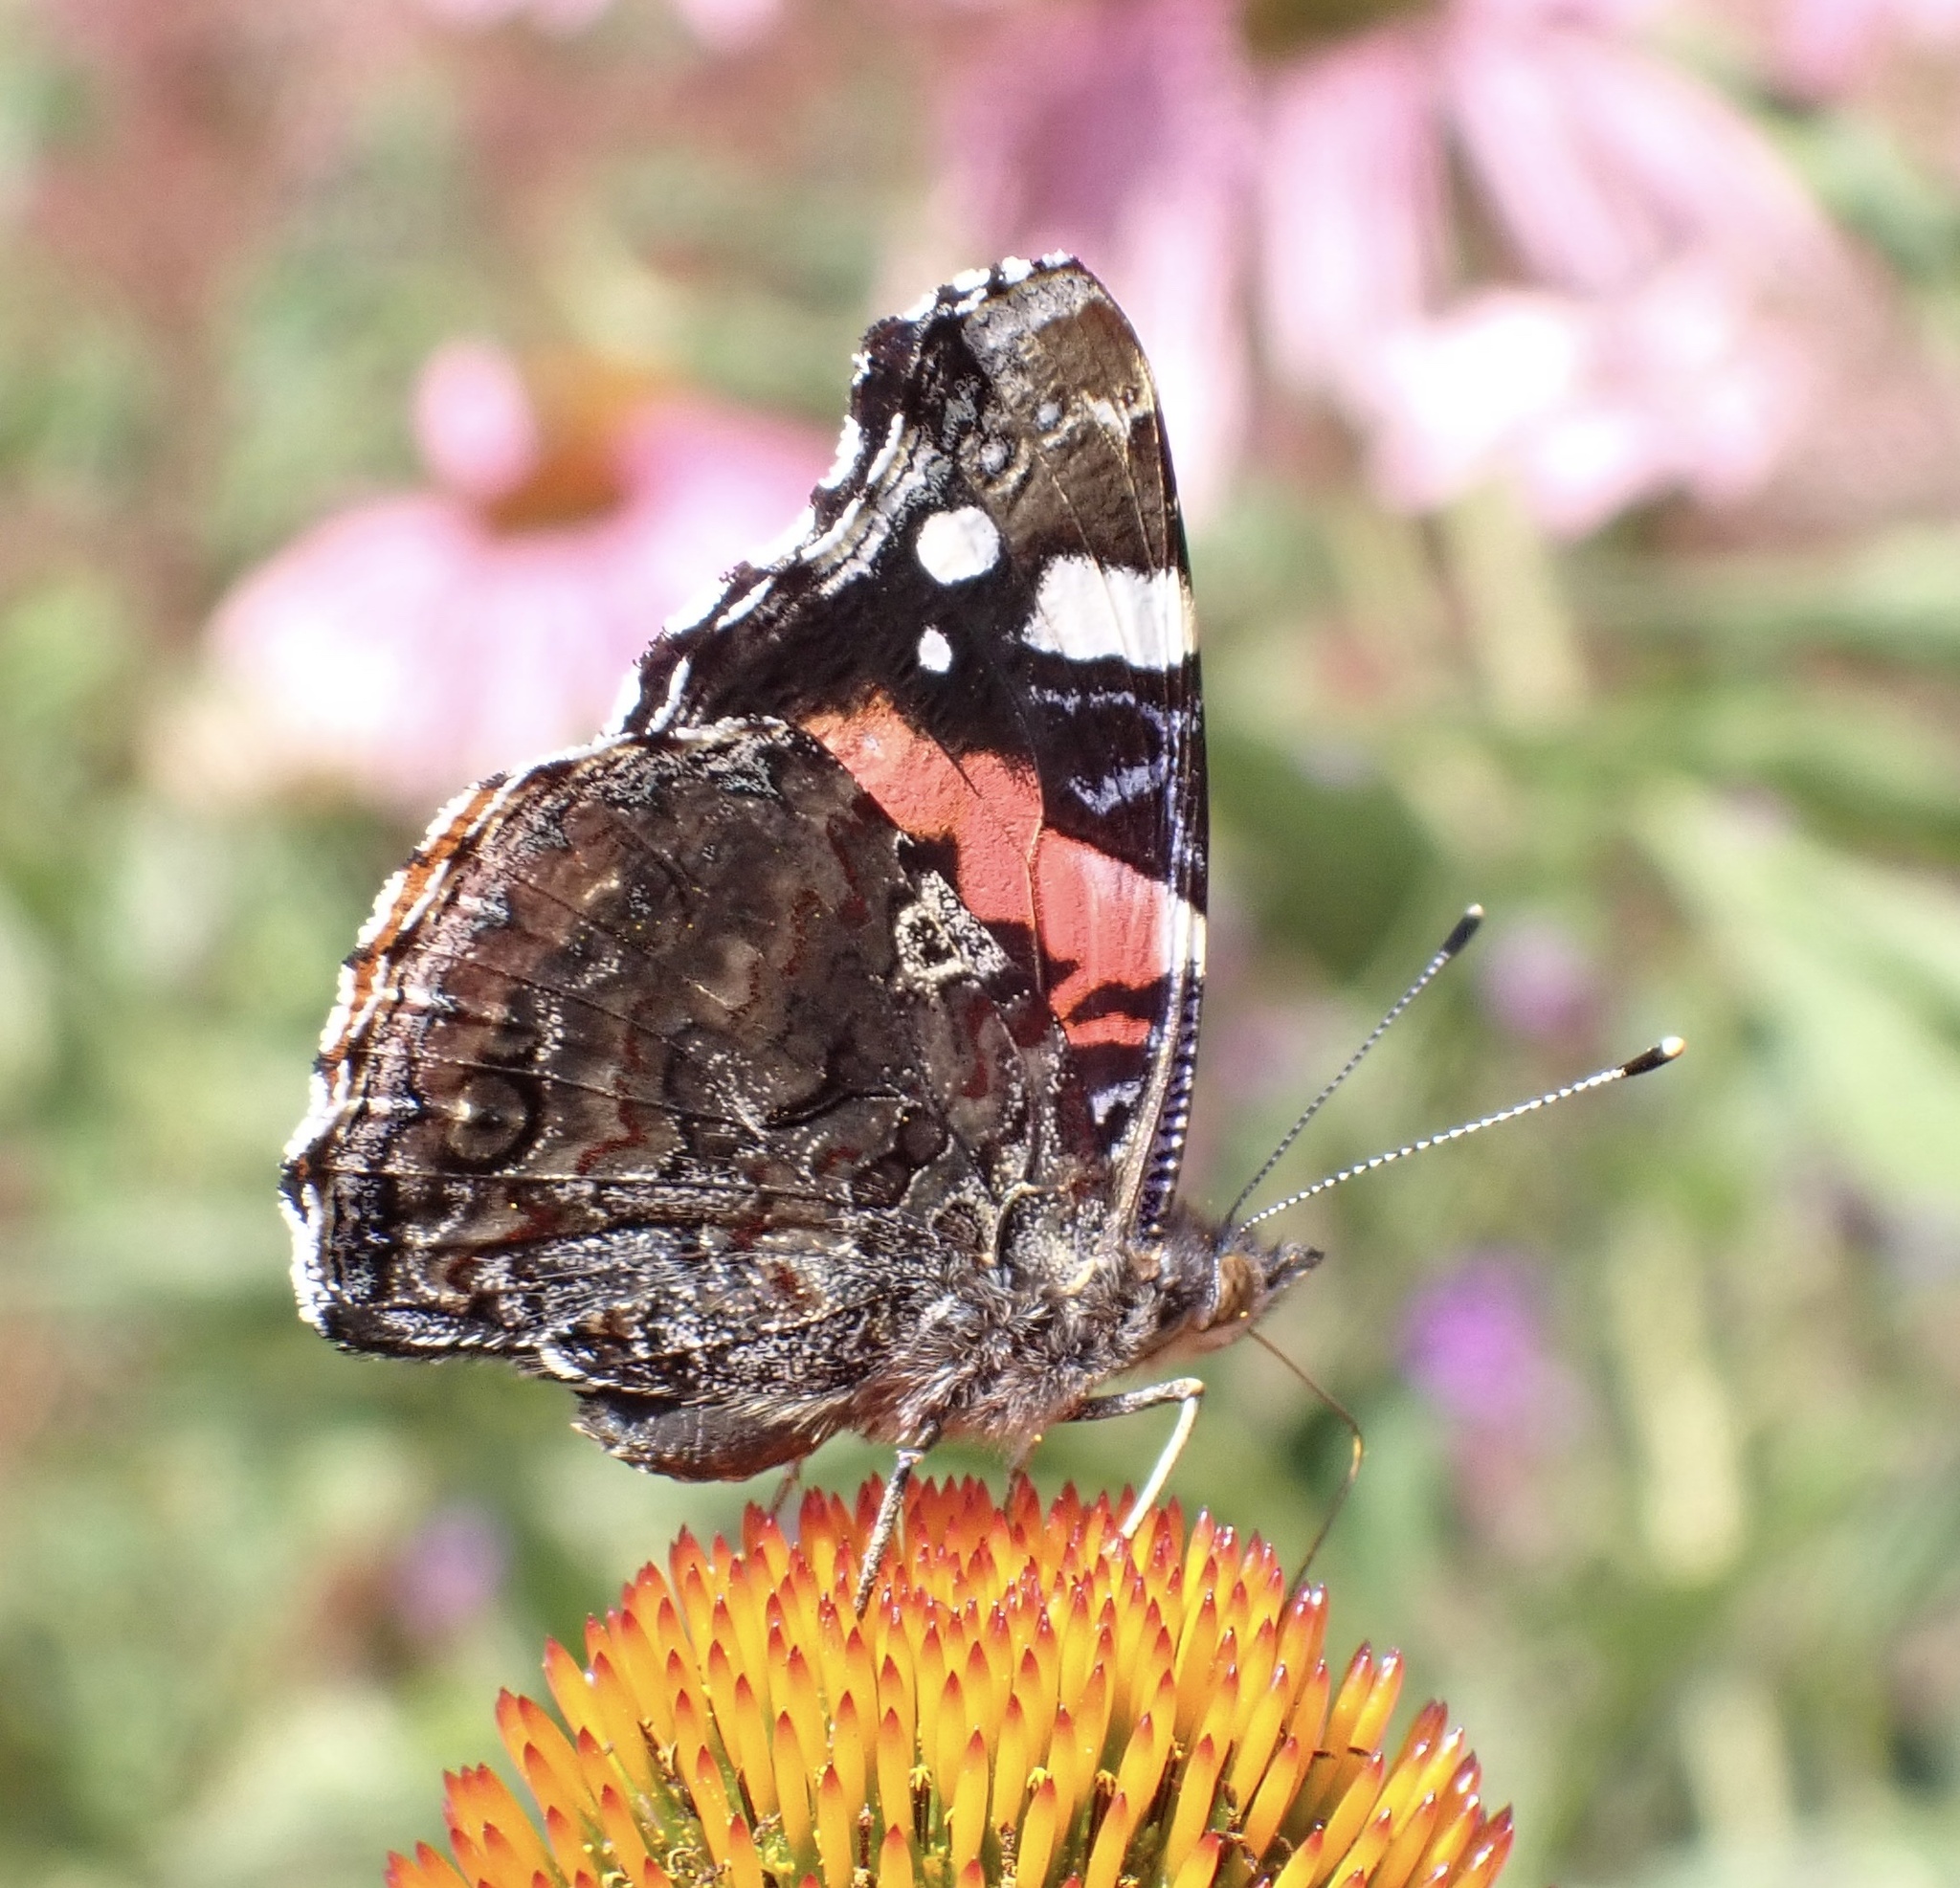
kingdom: Animalia
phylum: Arthropoda
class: Insecta
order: Lepidoptera
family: Nymphalidae
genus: Vanessa
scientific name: Vanessa atalanta
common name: Red admiral
